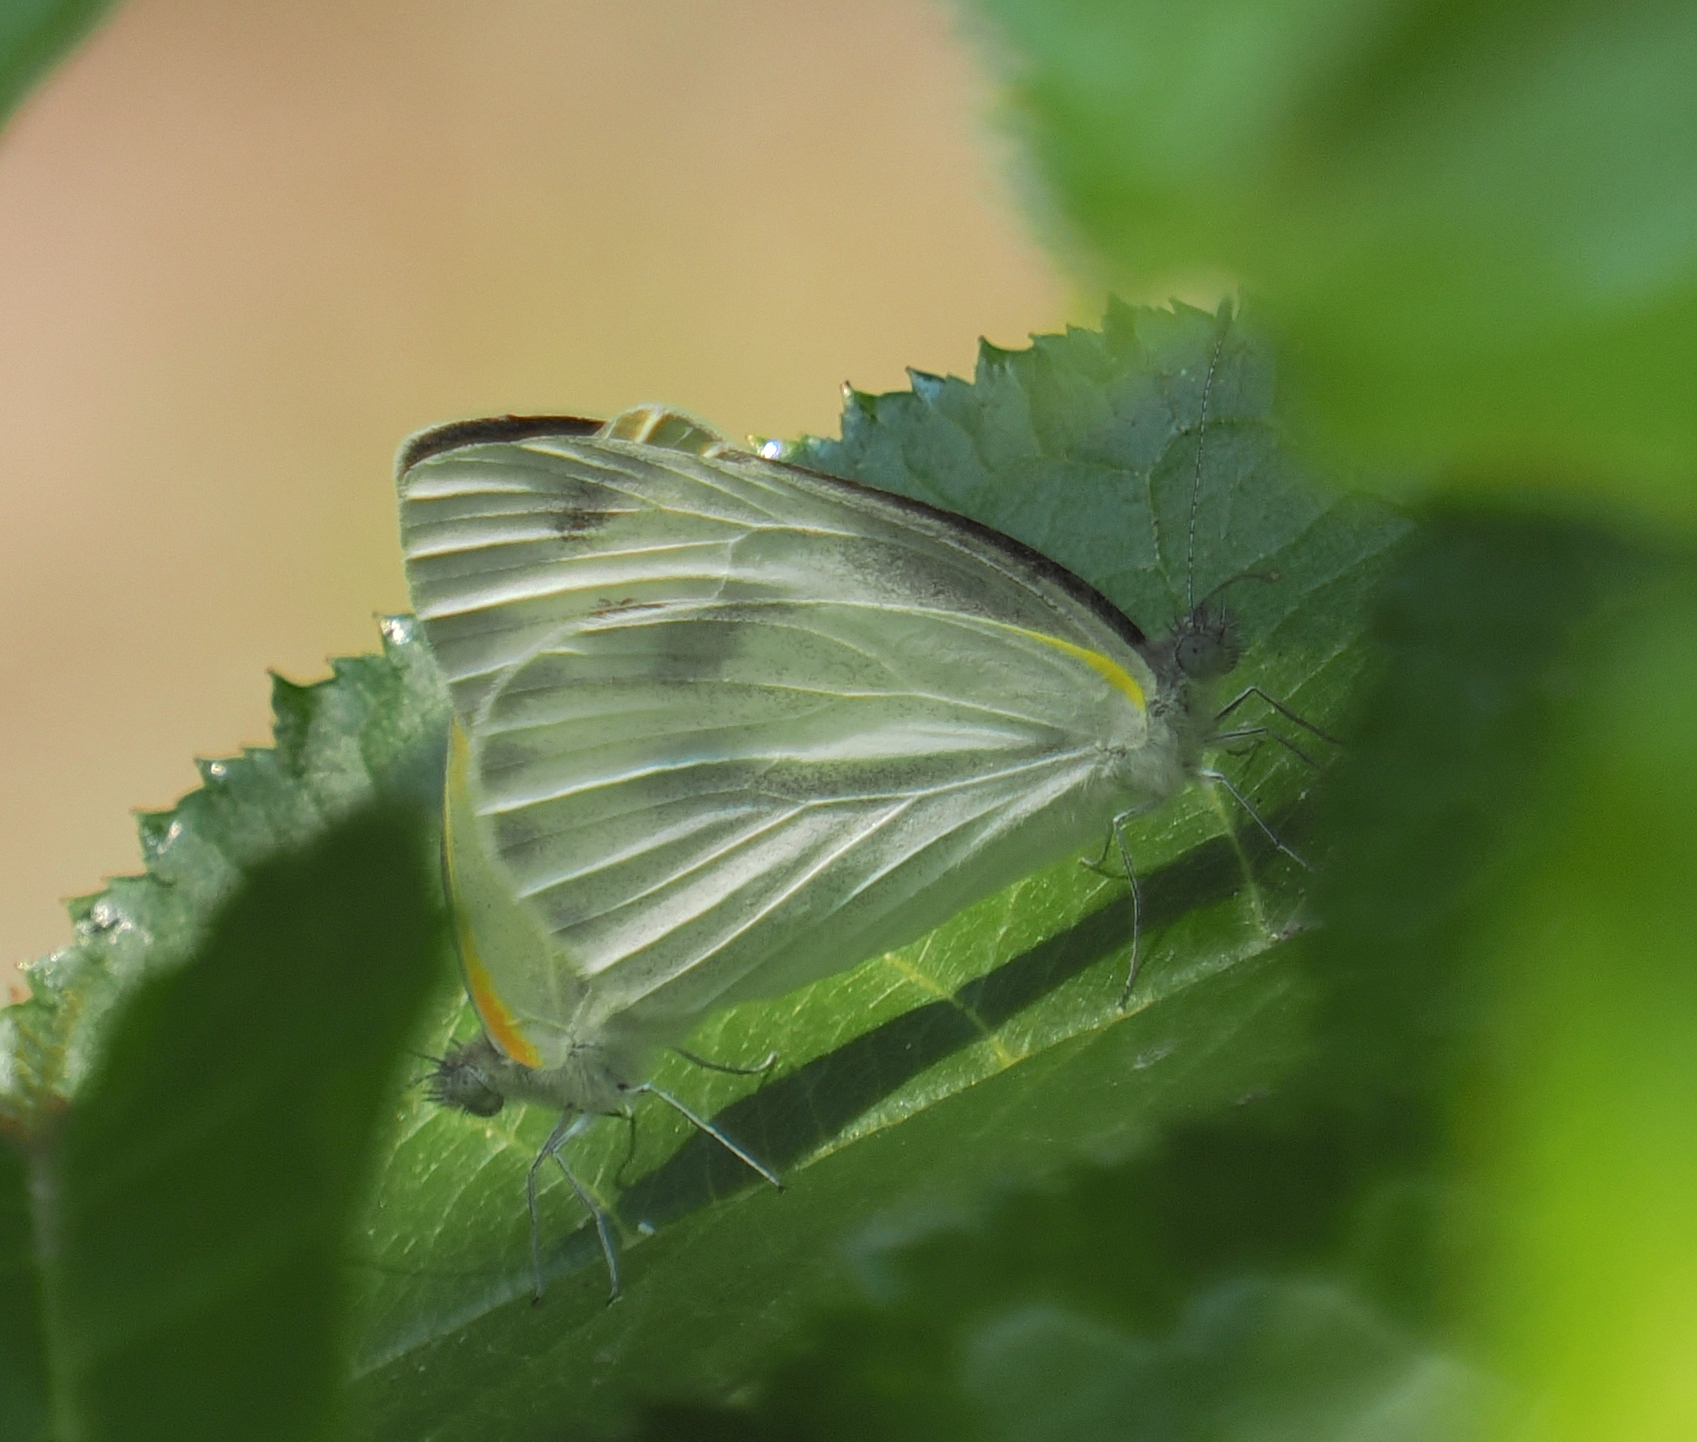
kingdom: Animalia
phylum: Arthropoda
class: Insecta
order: Lepidoptera
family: Pieridae
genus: Pieris
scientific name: Pieris canidia
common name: Indian cabbage white
